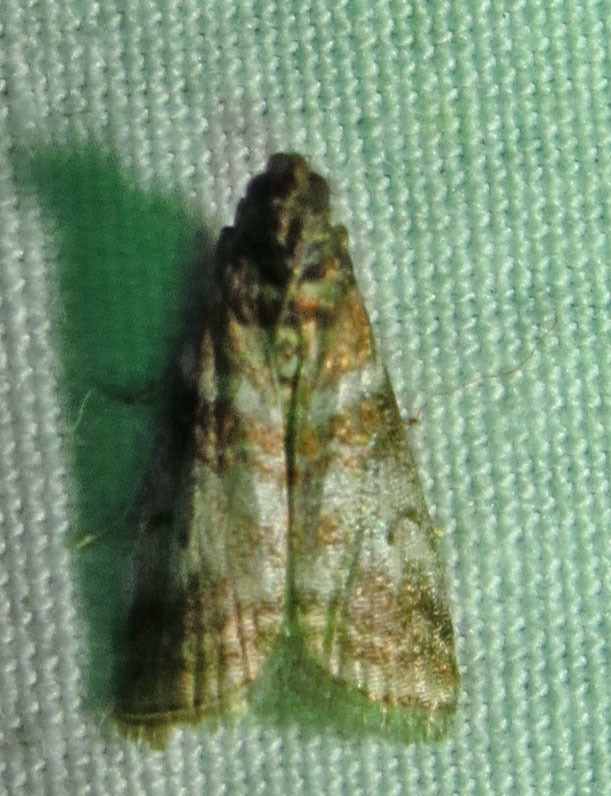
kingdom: Animalia
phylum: Arthropoda
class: Insecta
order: Lepidoptera
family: Pyralidae
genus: Sciota
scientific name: Sciota uvinella
